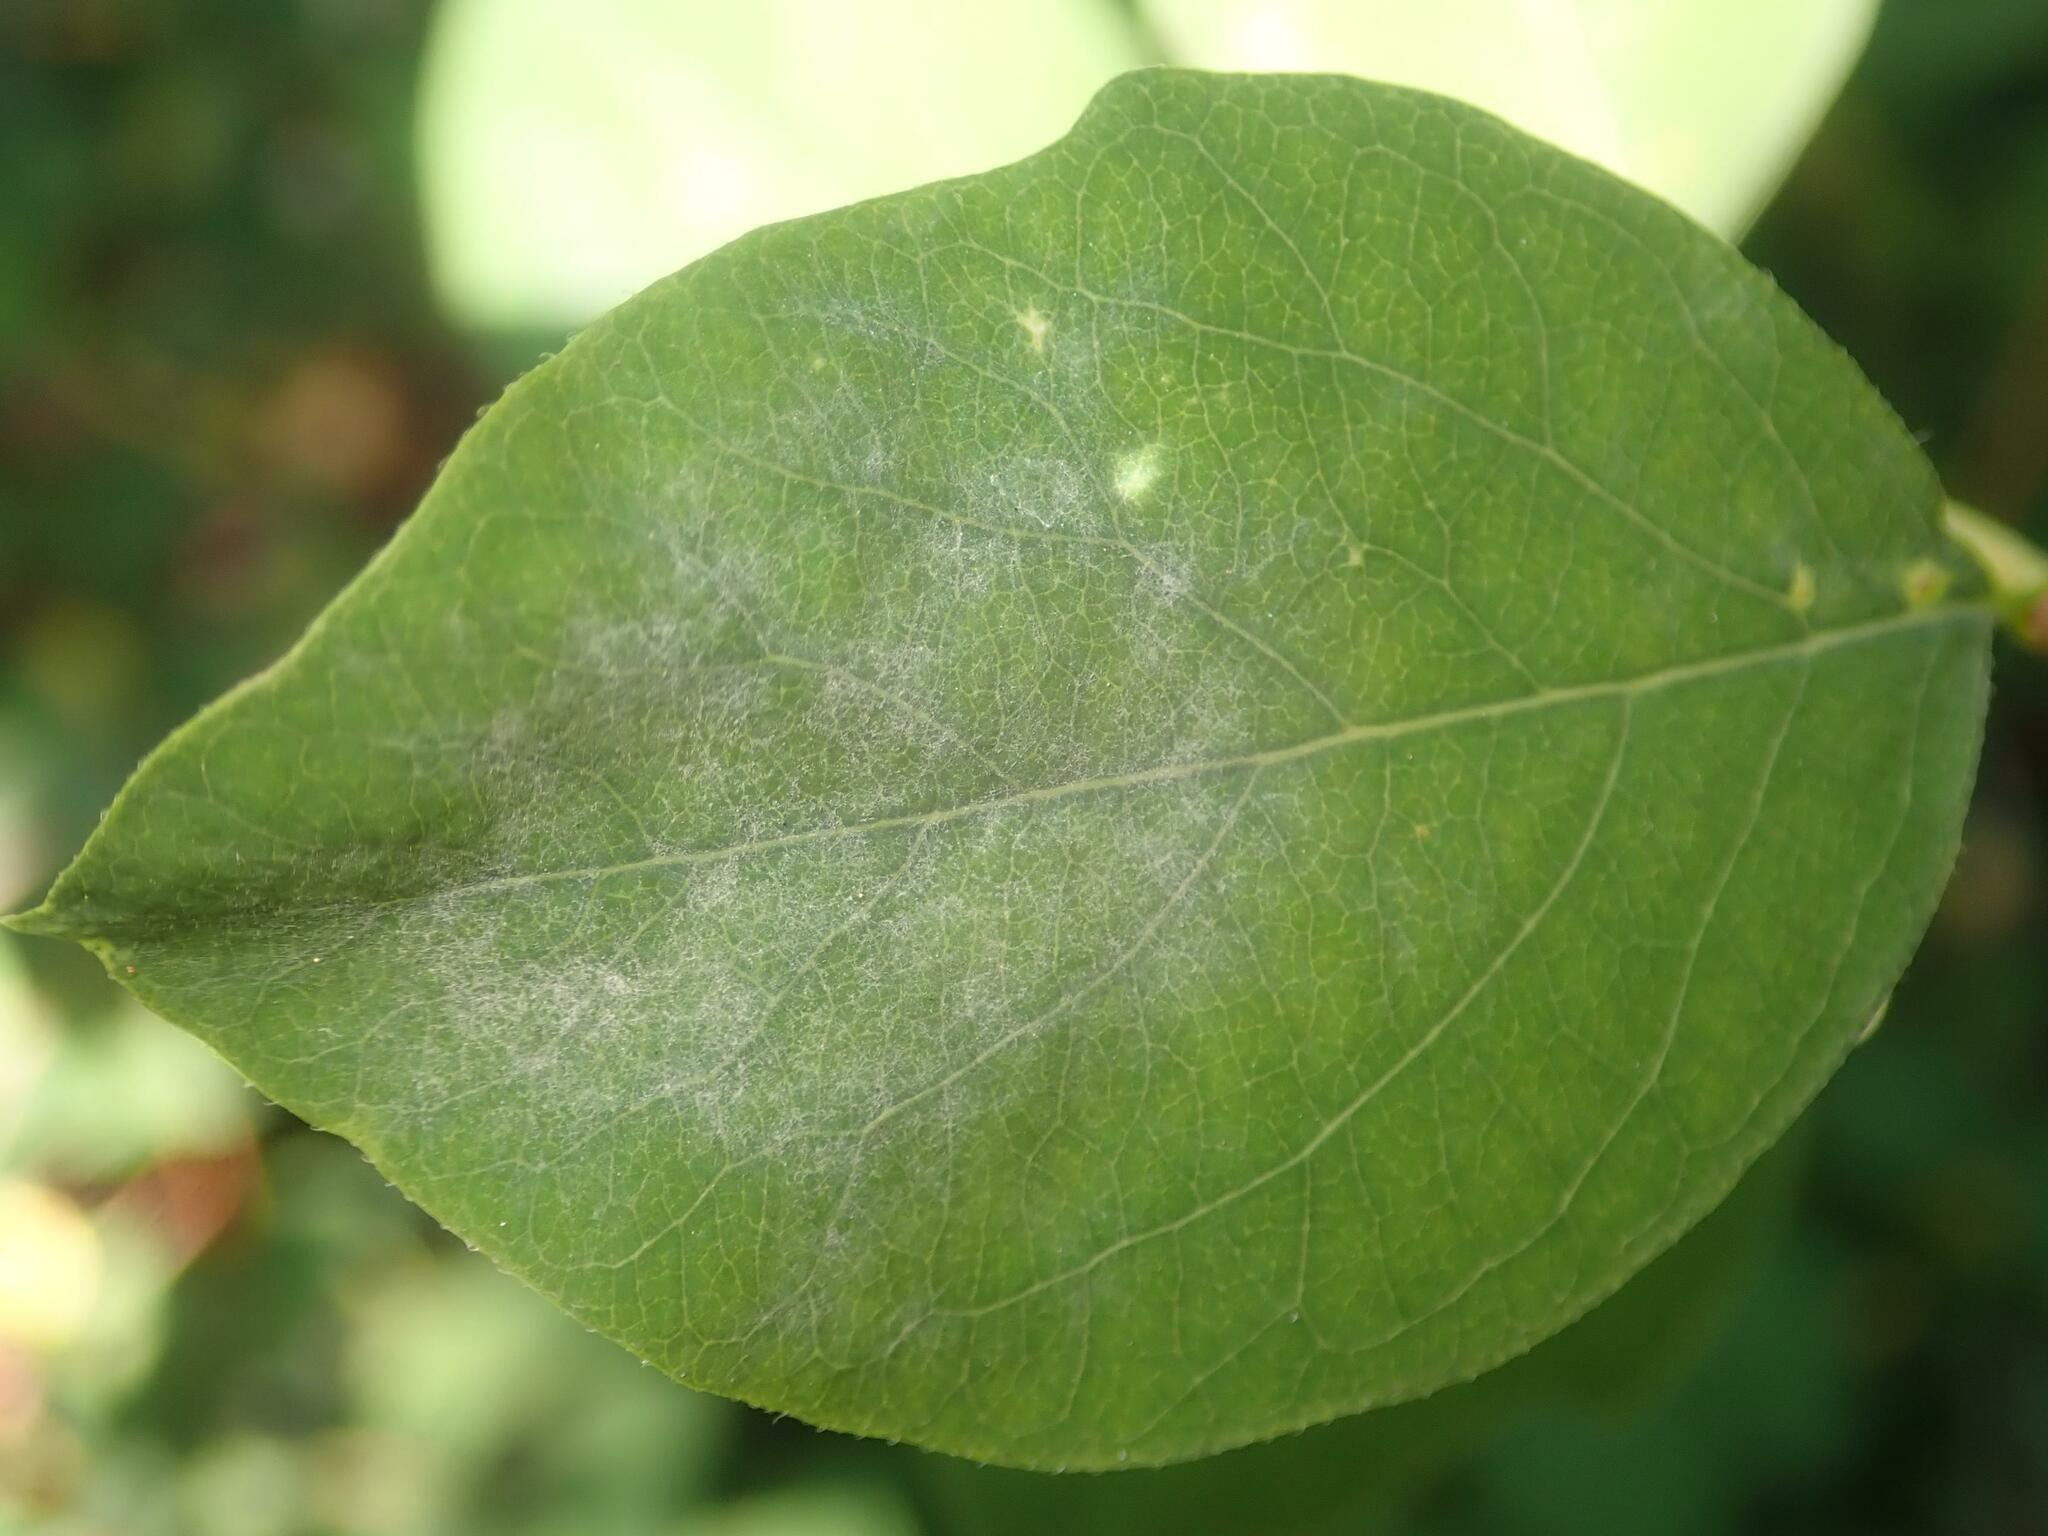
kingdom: Fungi
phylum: Ascomycota
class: Leotiomycetes
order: Helotiales
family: Erysiphaceae
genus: Erysiphe
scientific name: Erysiphe symphoricarpi
